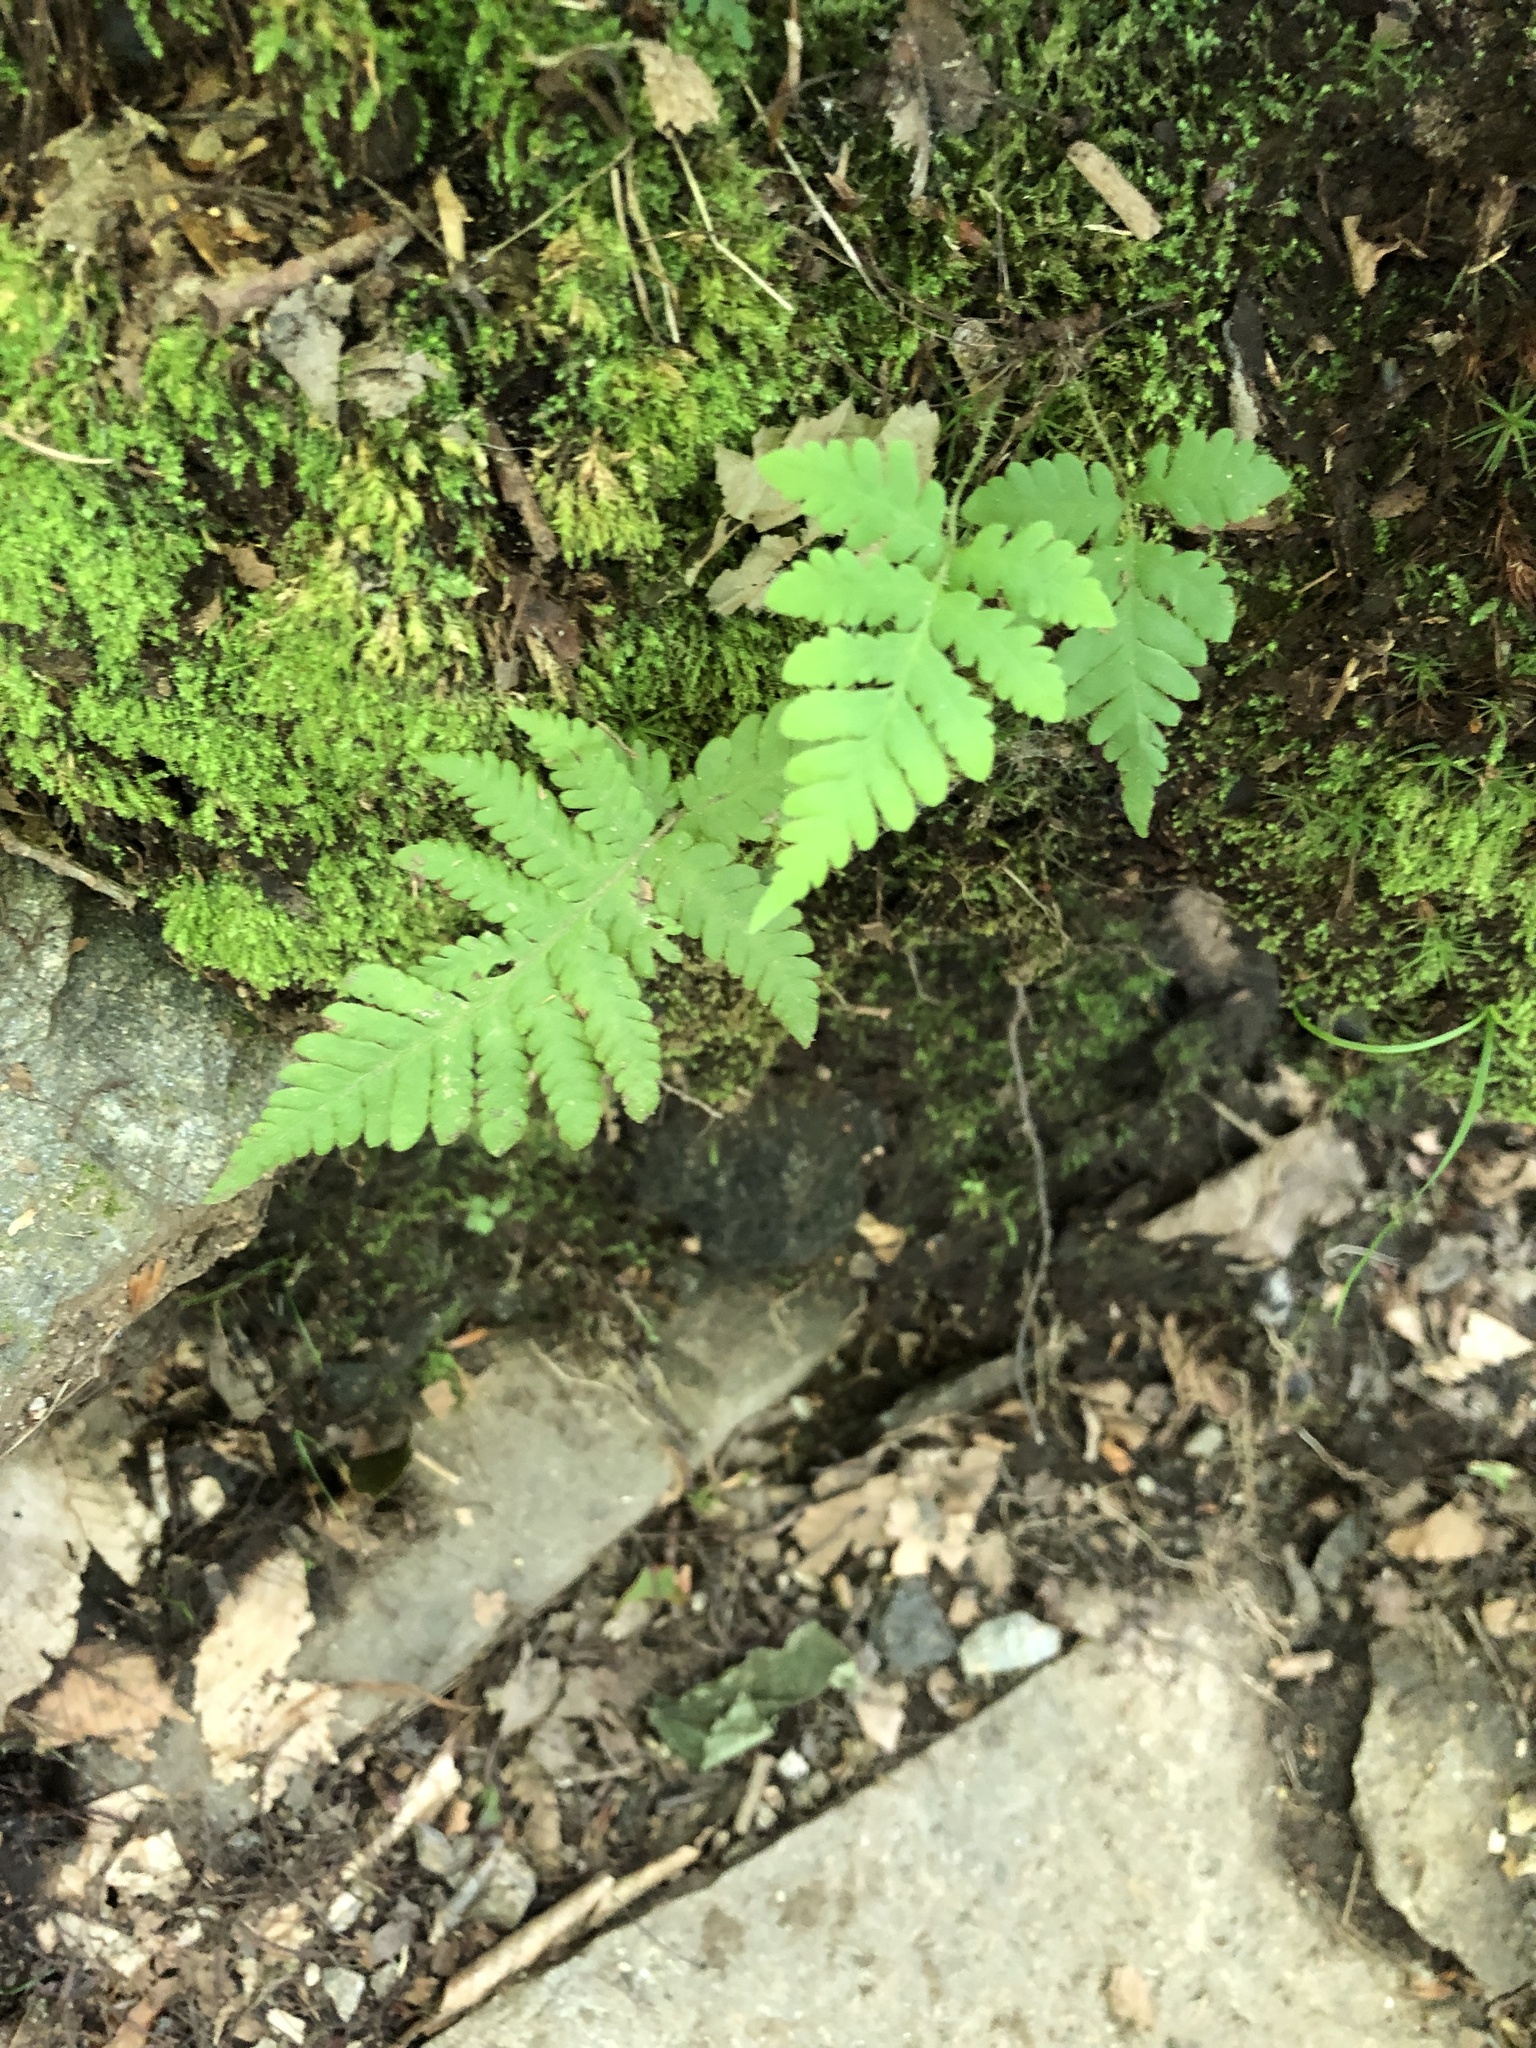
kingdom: Plantae
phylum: Tracheophyta
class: Polypodiopsida
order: Polypodiales
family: Thelypteridaceae
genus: Phegopteris
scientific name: Phegopteris connectilis
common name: Beech fern
